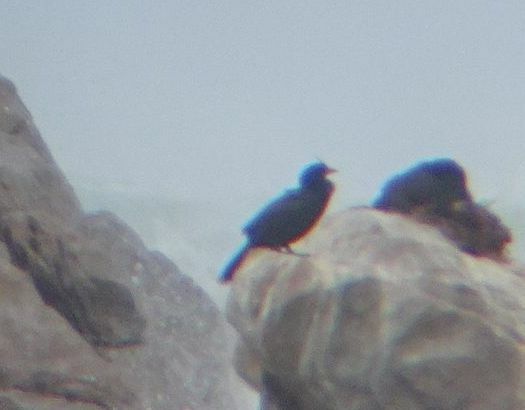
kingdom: Animalia
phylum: Chordata
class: Aves
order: Suliformes
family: Phalacrocoracidae
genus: Microcarbo
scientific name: Microcarbo coronatus
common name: Crowned cormorant
